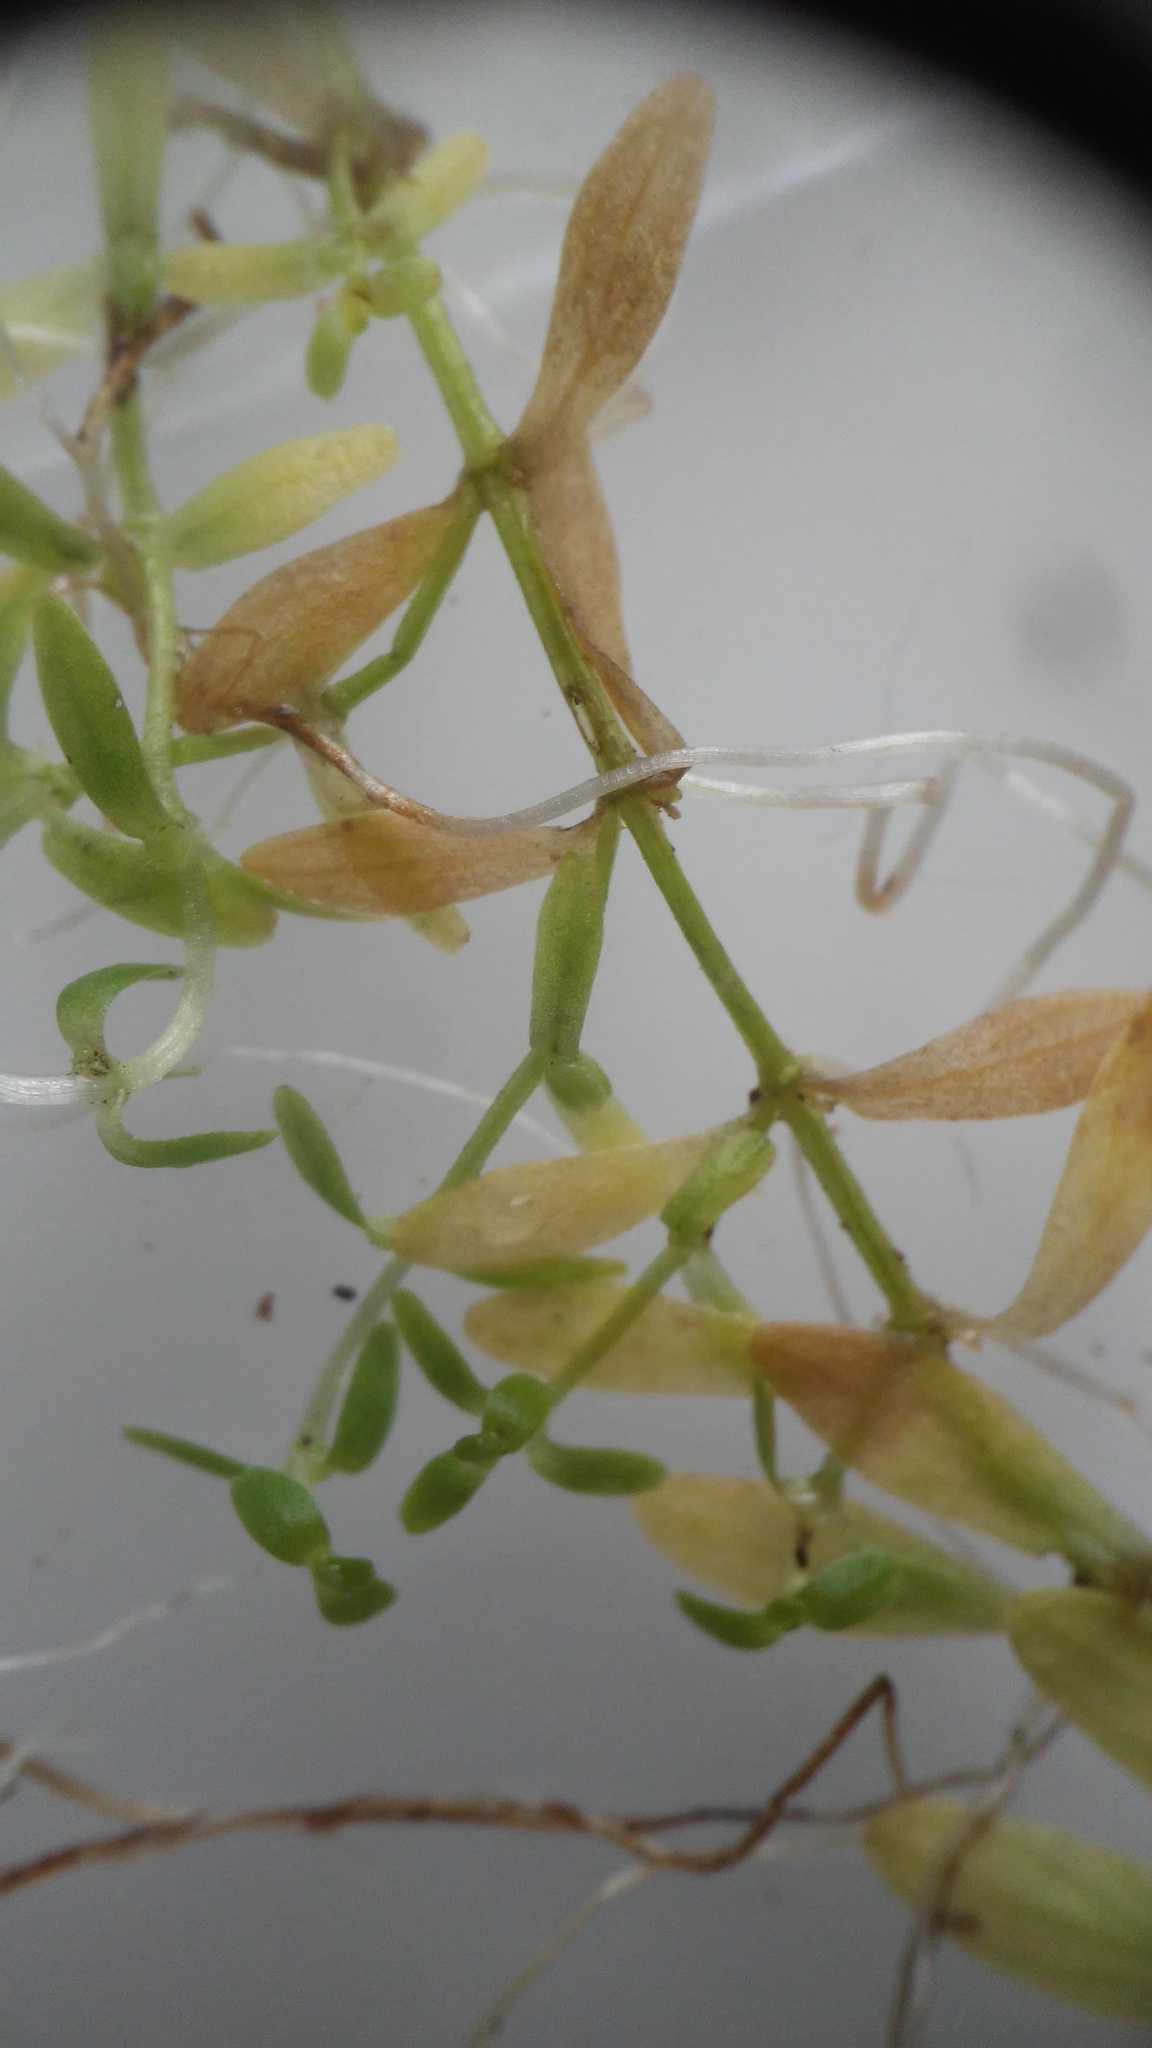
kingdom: Plantae
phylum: Tracheophyta
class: Magnoliopsida
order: Lamiales
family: Plantaginaceae
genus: Callitriche
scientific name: Callitriche palustris
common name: Spring water-starwort
